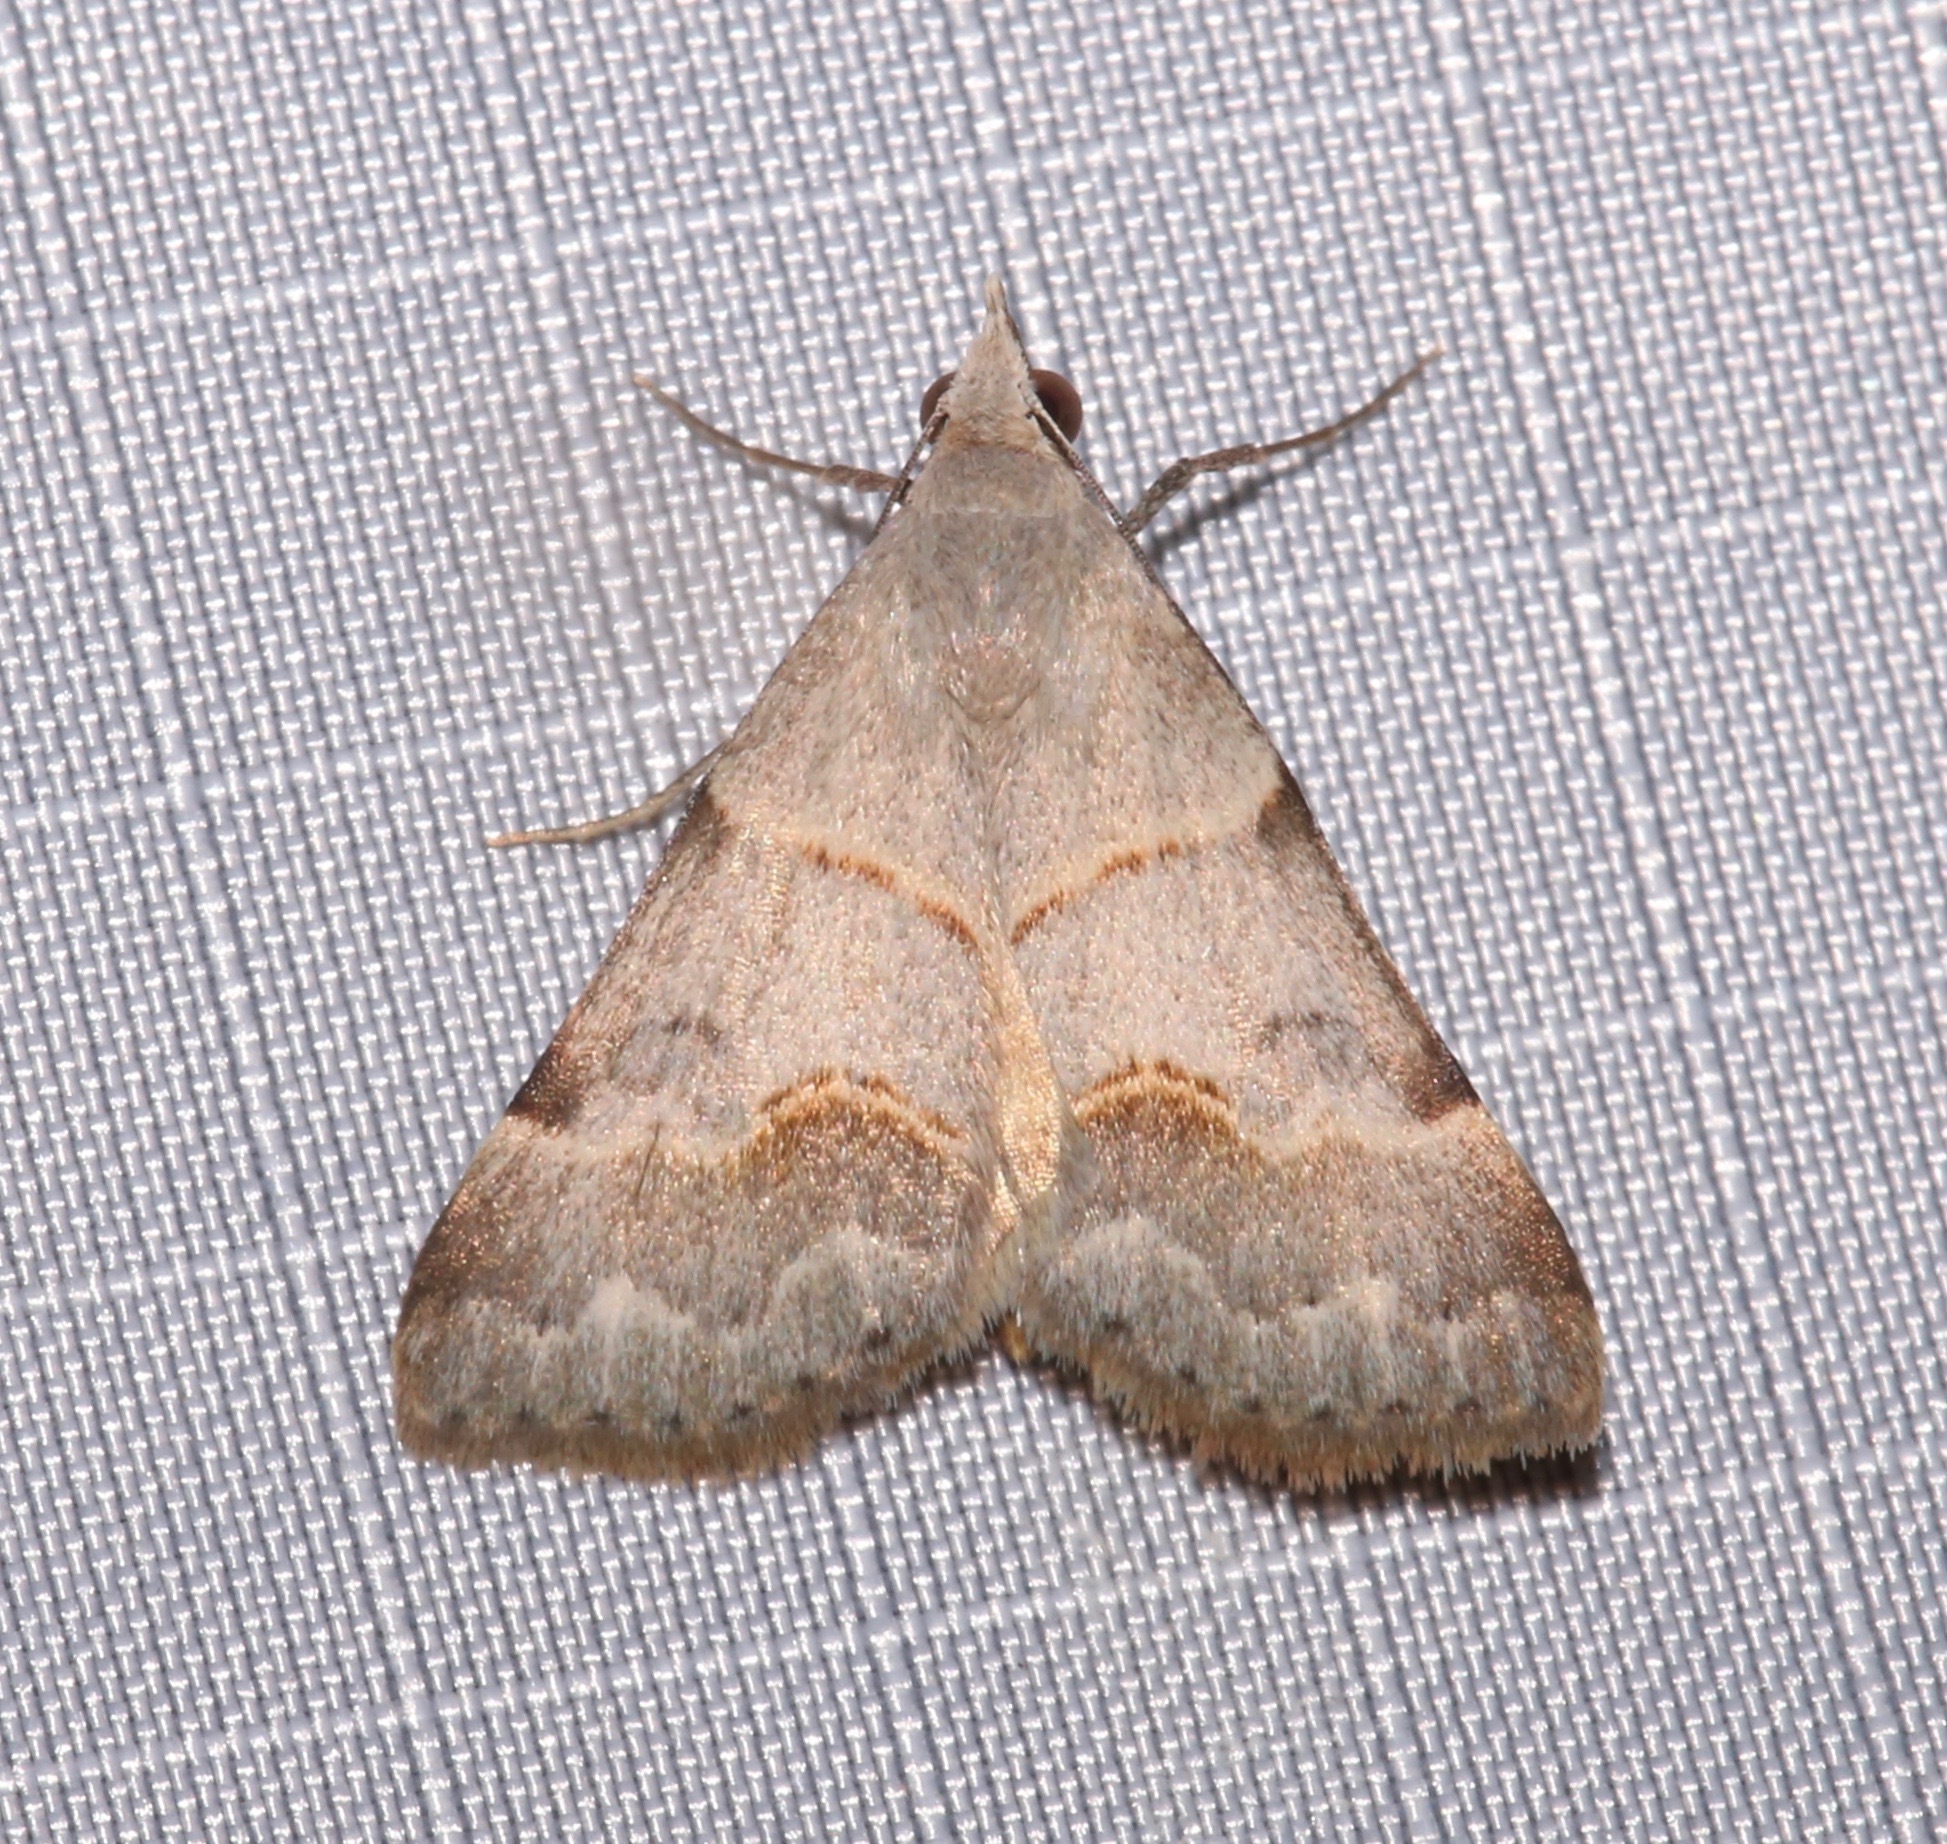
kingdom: Animalia
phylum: Arthropoda
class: Insecta
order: Lepidoptera
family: Erebidae
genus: Hemeroplanis
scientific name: Hemeroplanis incusalis
